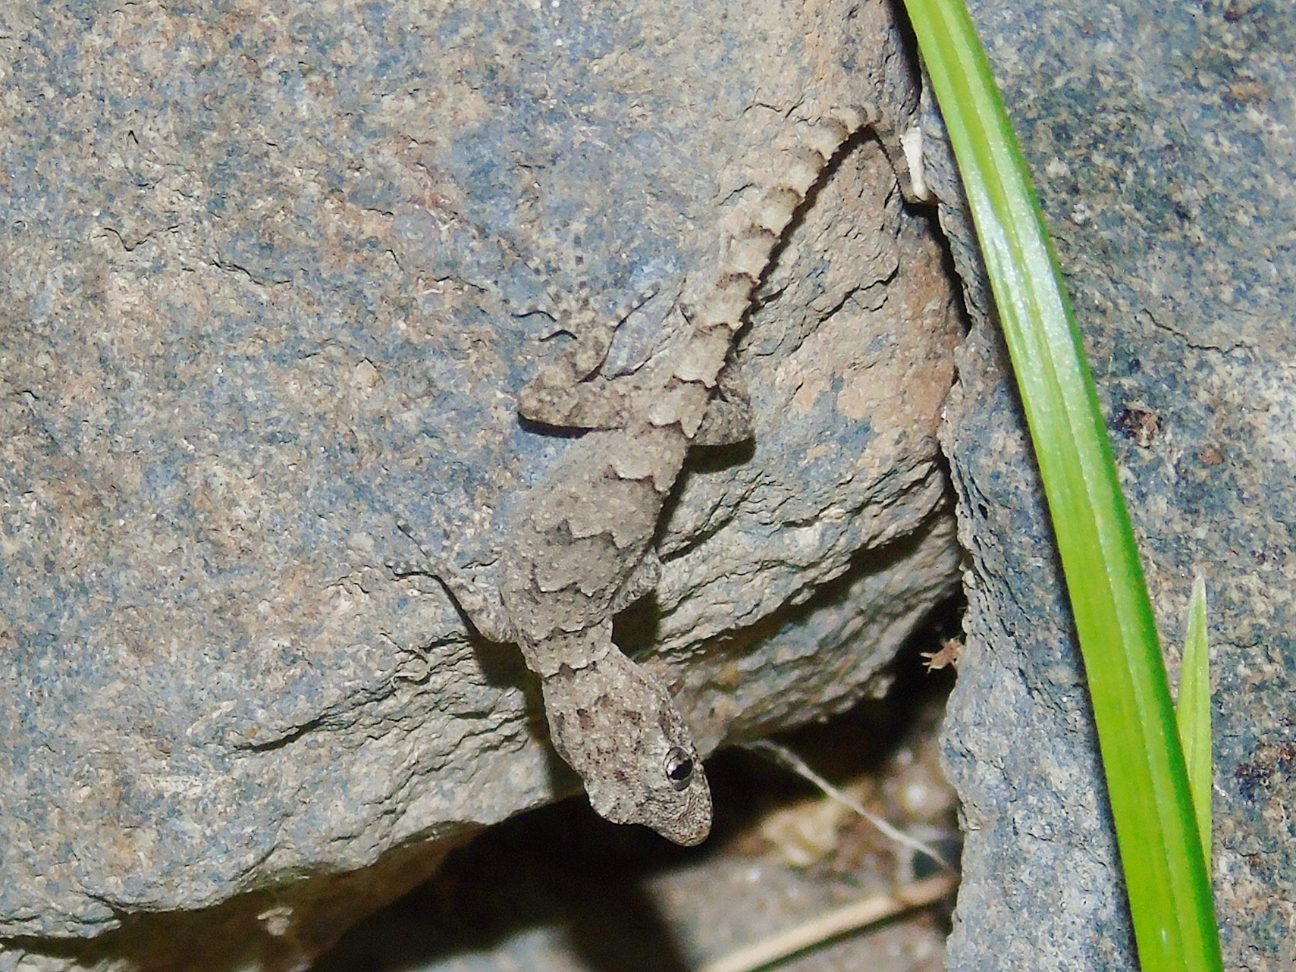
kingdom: Animalia
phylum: Chordata
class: Squamata
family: Gekkonidae
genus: Mediodactylus
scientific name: Mediodactylus heterocercus
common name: Asia minor thin-toed gecko
